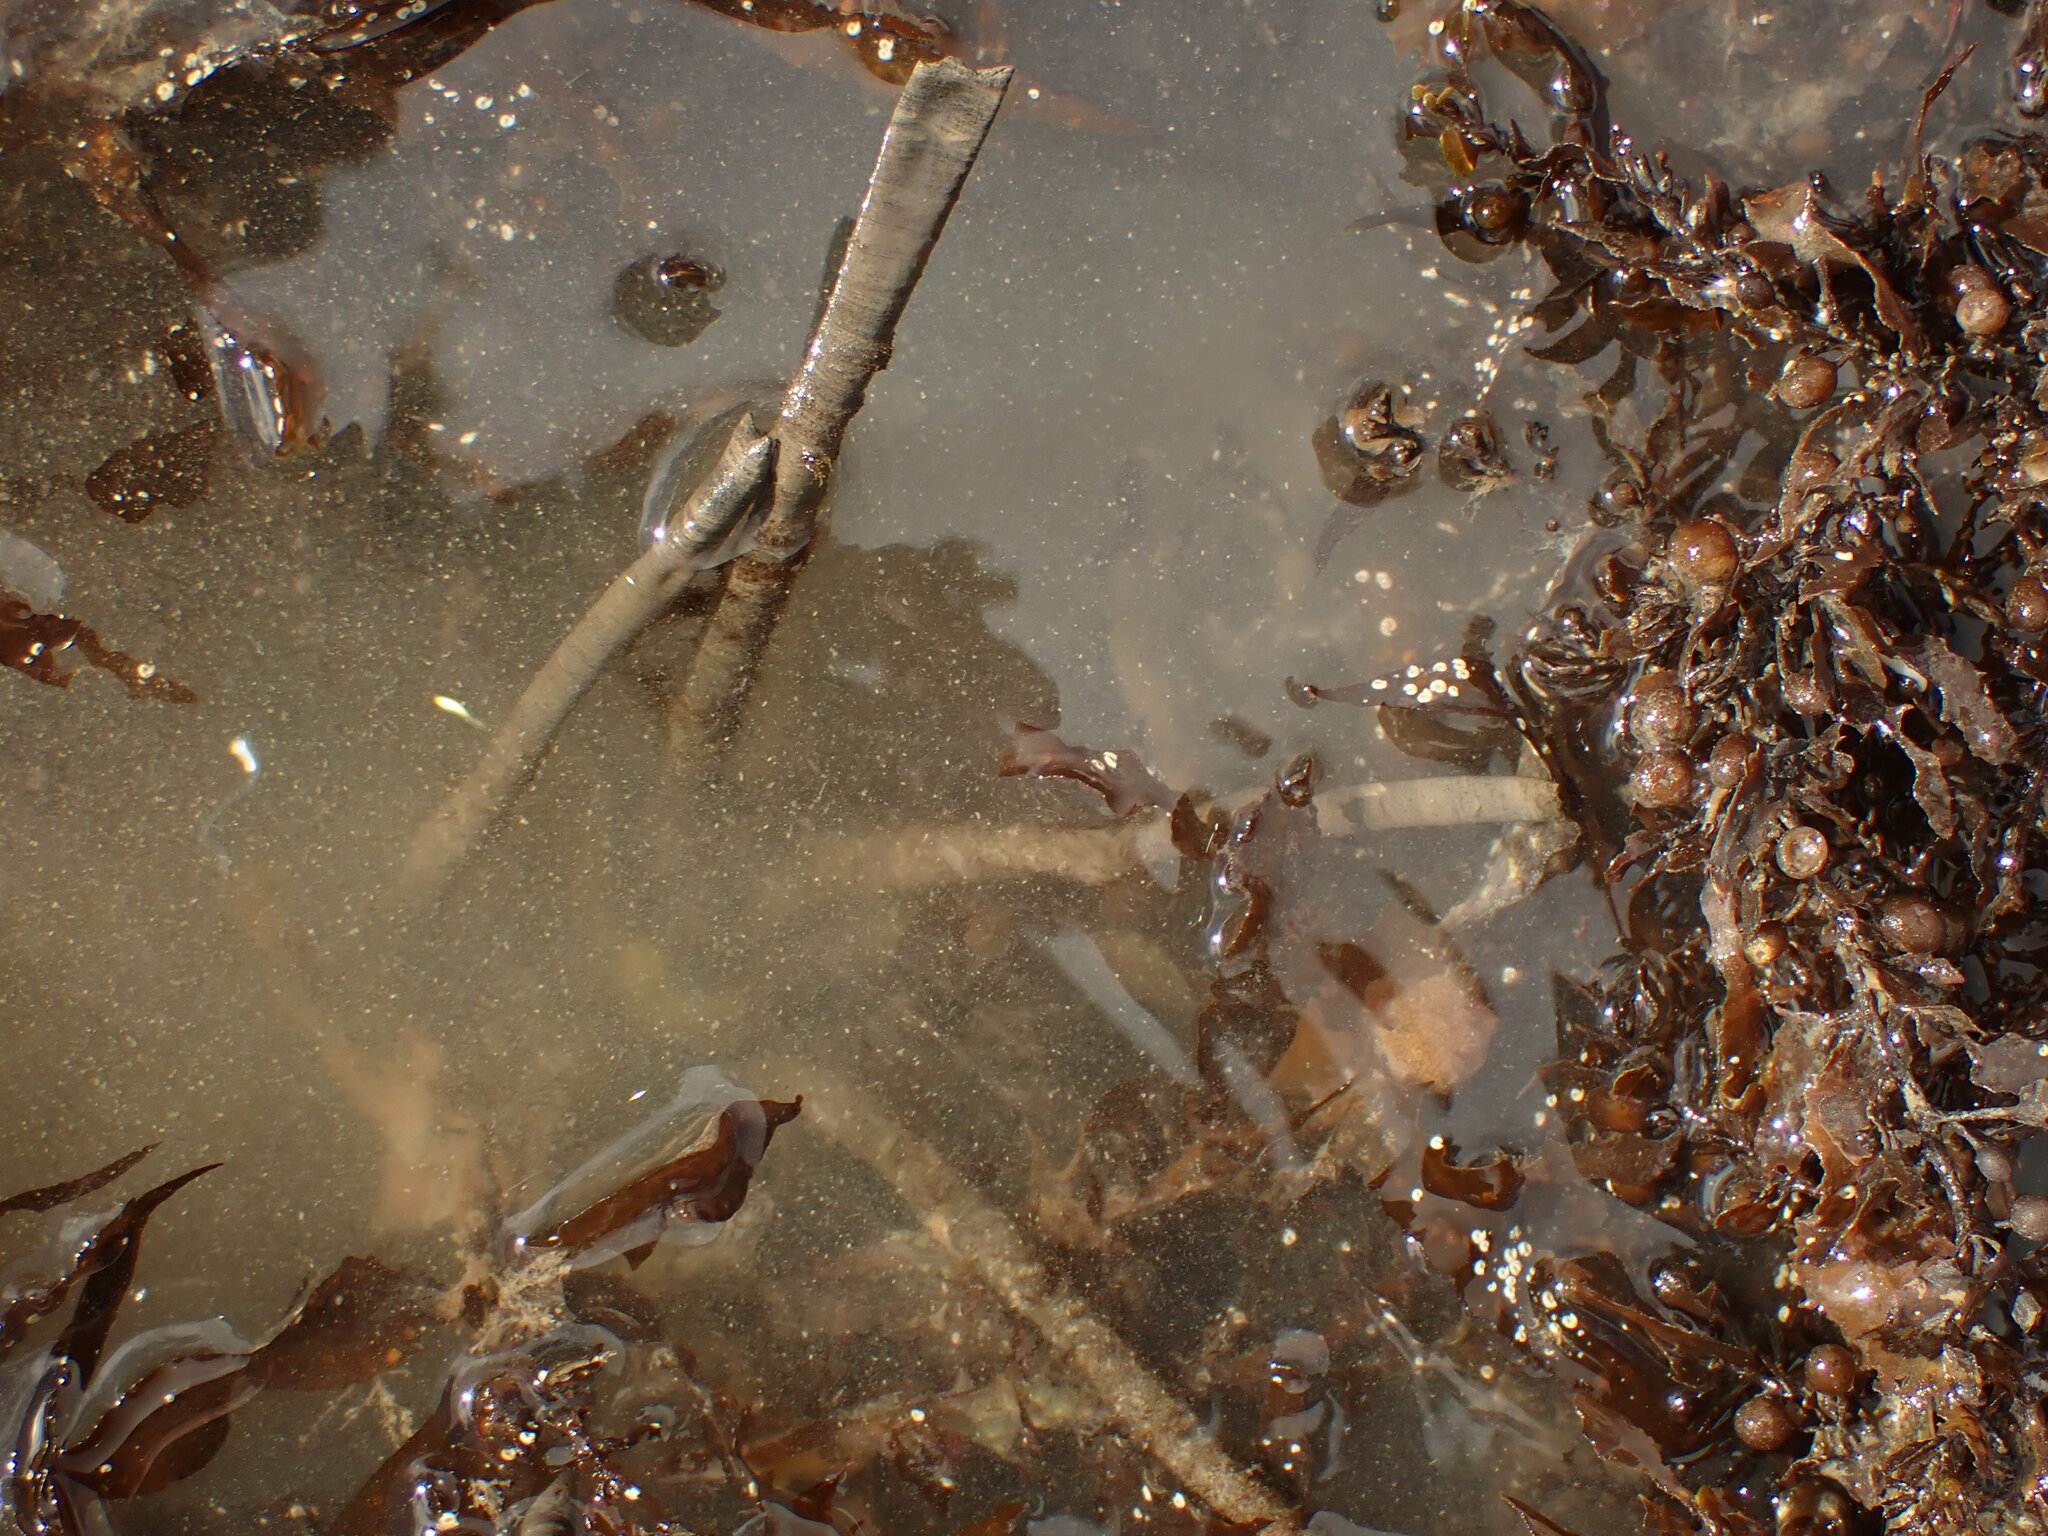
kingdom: Animalia
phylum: Annelida
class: Polychaeta
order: Sabellida
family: Sabellidae
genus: Sabella
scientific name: Sabella spallanzanii
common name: Feather duster worm
